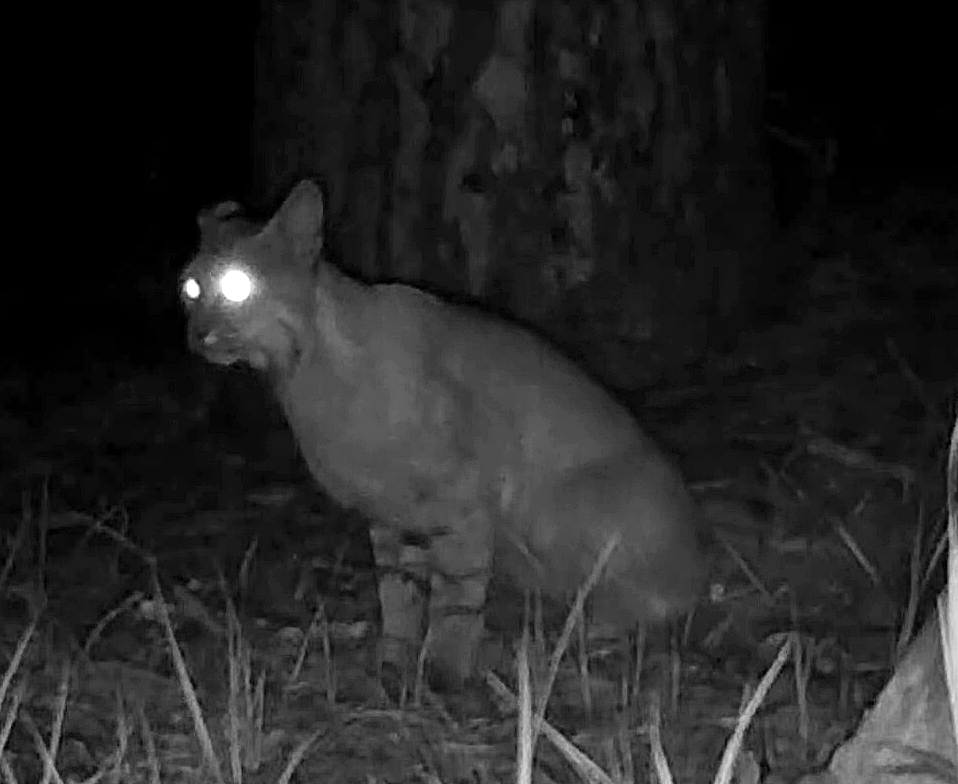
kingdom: Animalia
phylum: Chordata
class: Mammalia
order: Carnivora
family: Felidae
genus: Lynx
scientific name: Lynx rufus
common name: Bobcat
